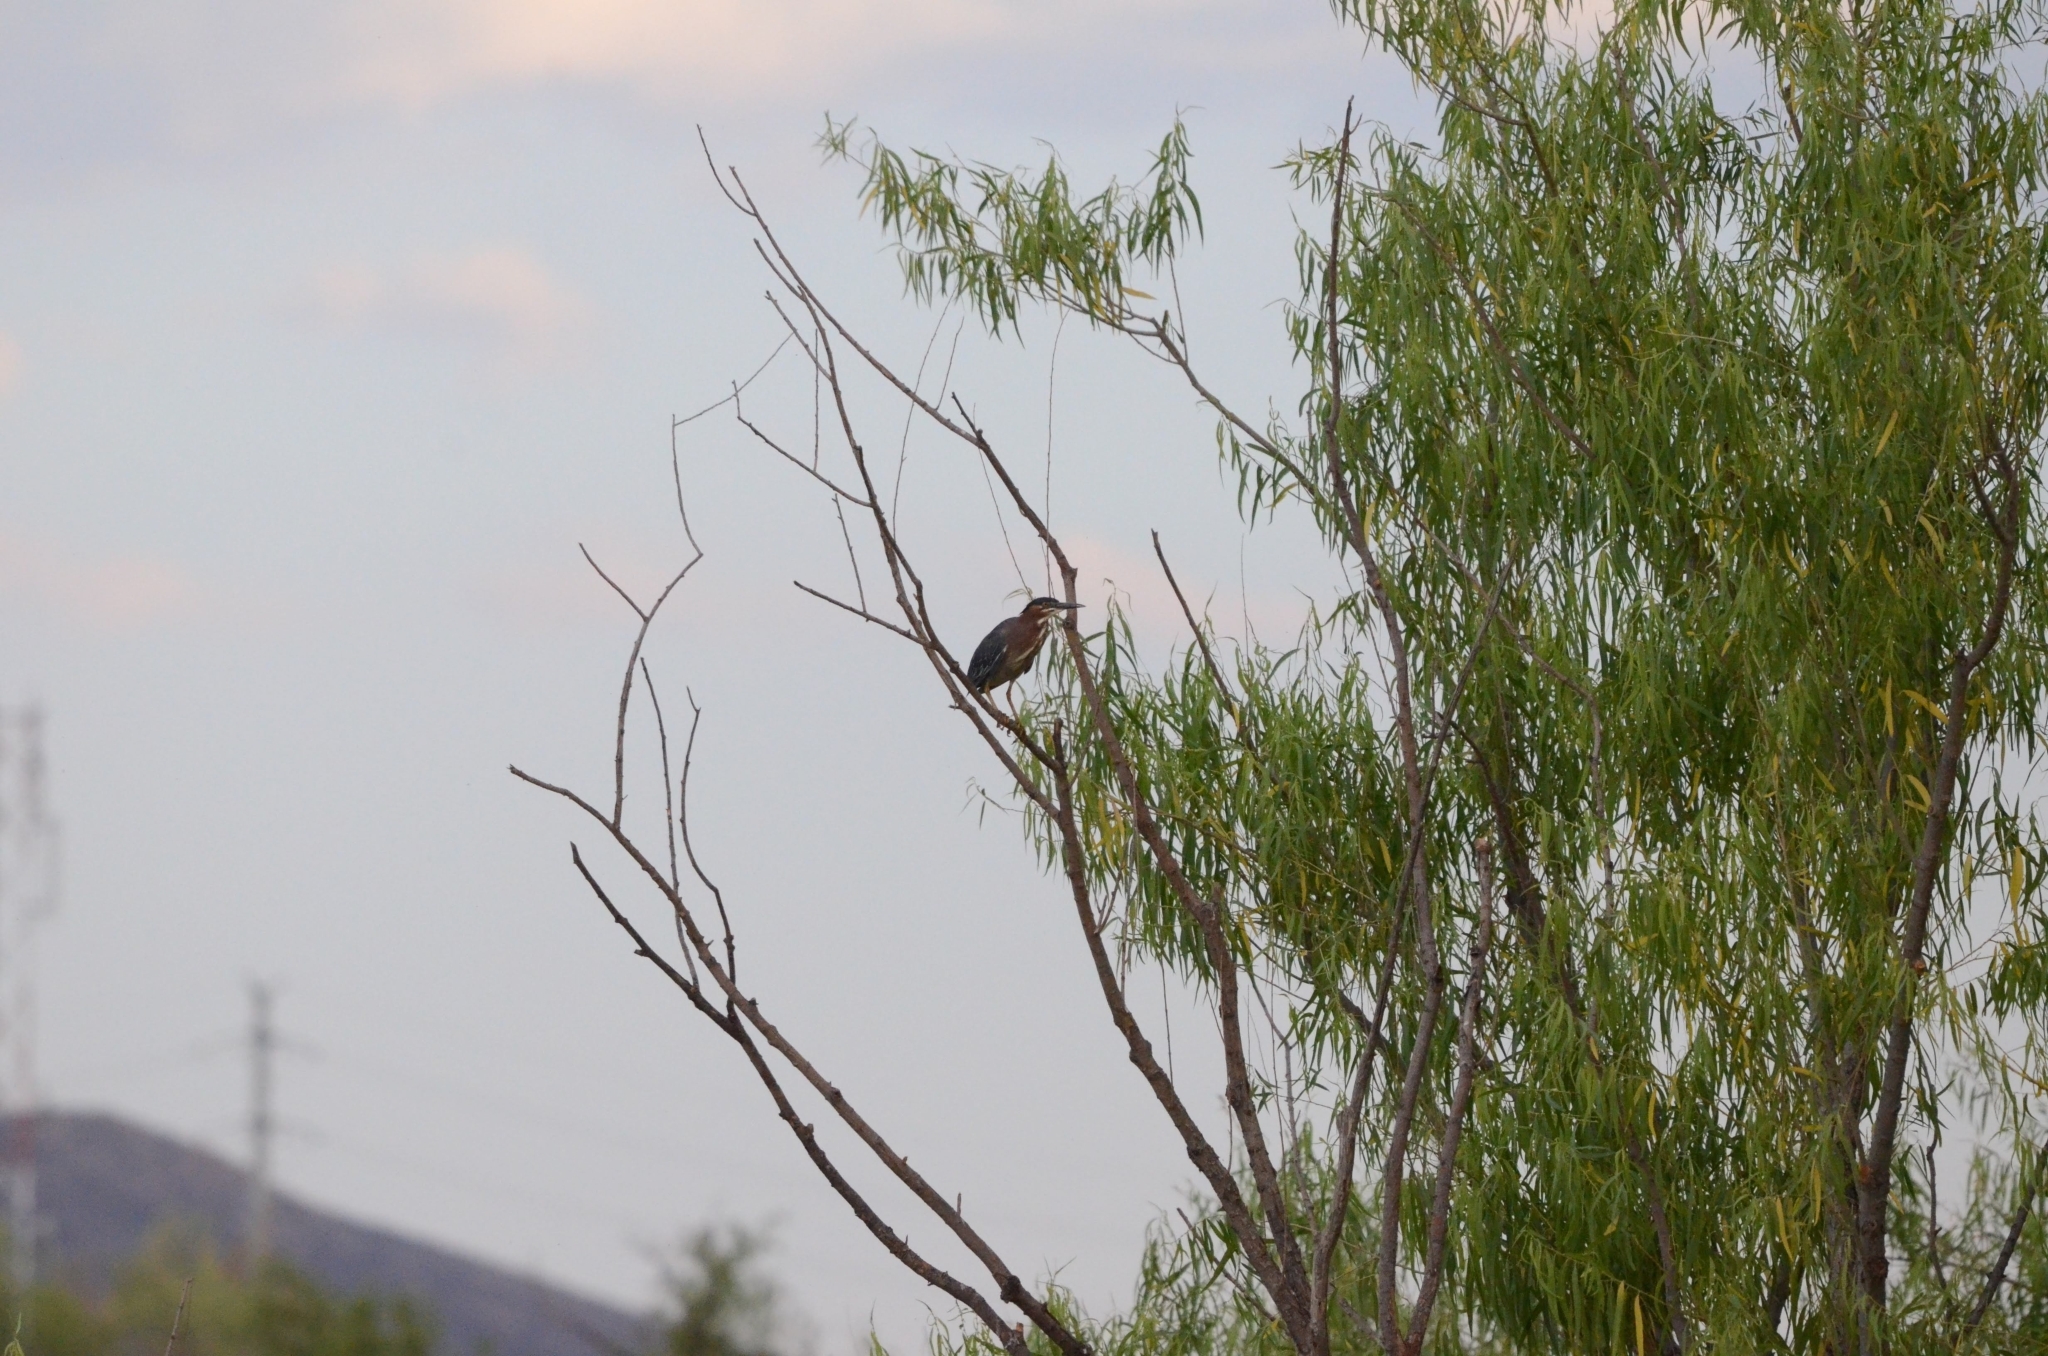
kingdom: Animalia
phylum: Chordata
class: Aves
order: Pelecaniformes
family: Ardeidae
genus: Butorides
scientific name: Butorides virescens
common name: Green heron
